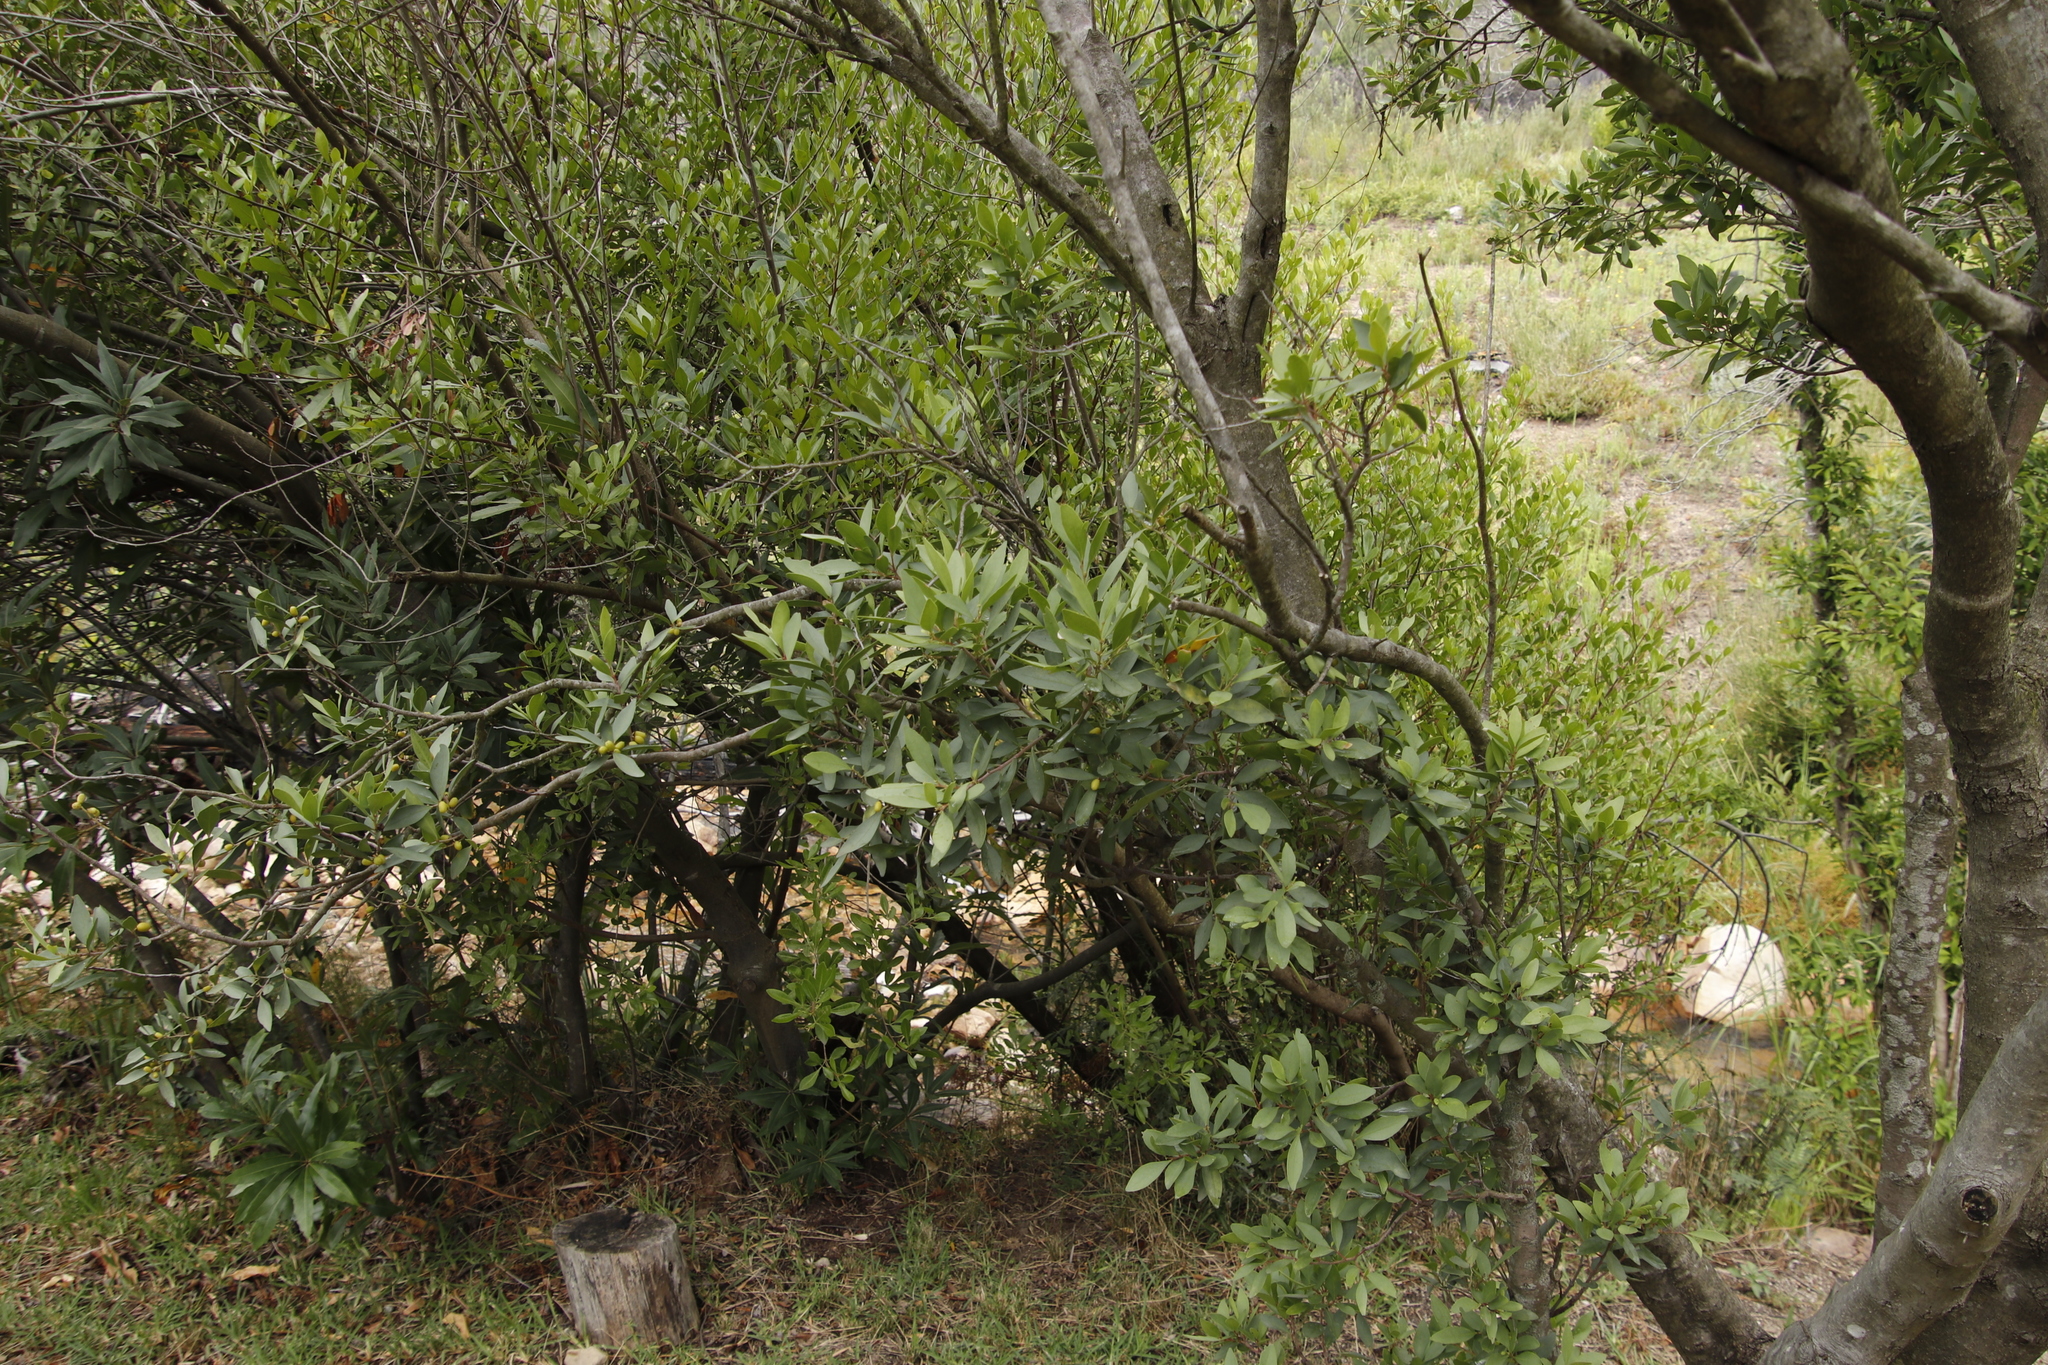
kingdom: Plantae
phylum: Tracheophyta
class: Magnoliopsida
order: Celastrales
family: Celastraceae
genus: Gymnosporia
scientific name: Gymnosporia laurina
